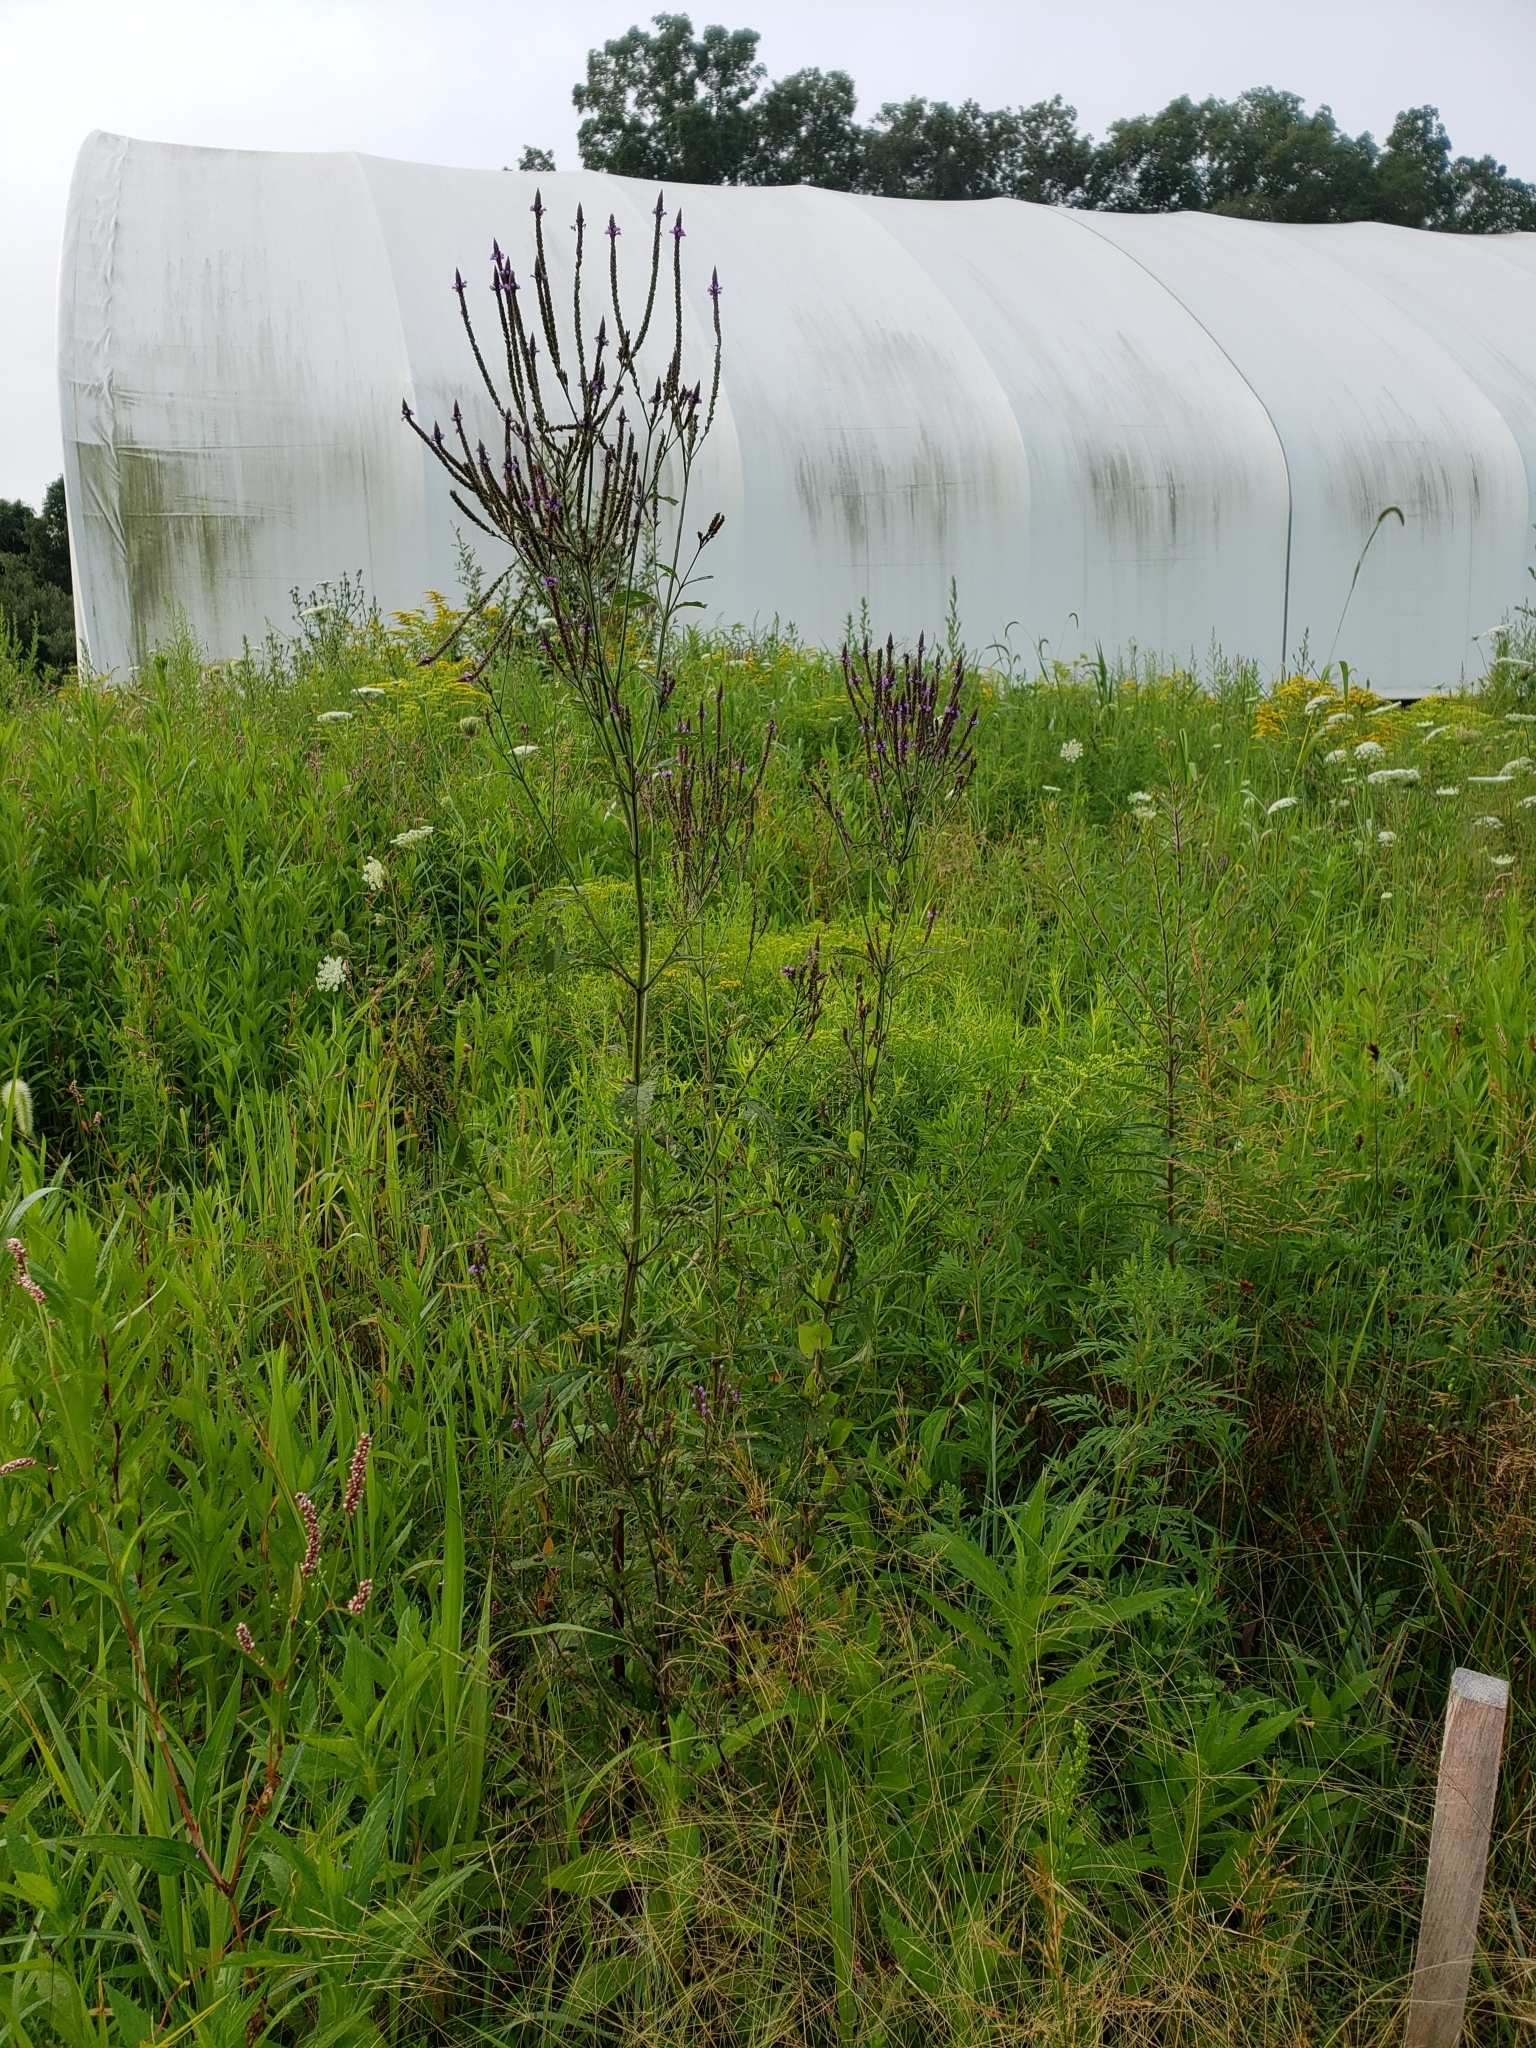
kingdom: Plantae
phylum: Tracheophyta
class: Magnoliopsida
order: Lamiales
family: Verbenaceae
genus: Verbena
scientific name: Verbena hastata
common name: American blue vervain
